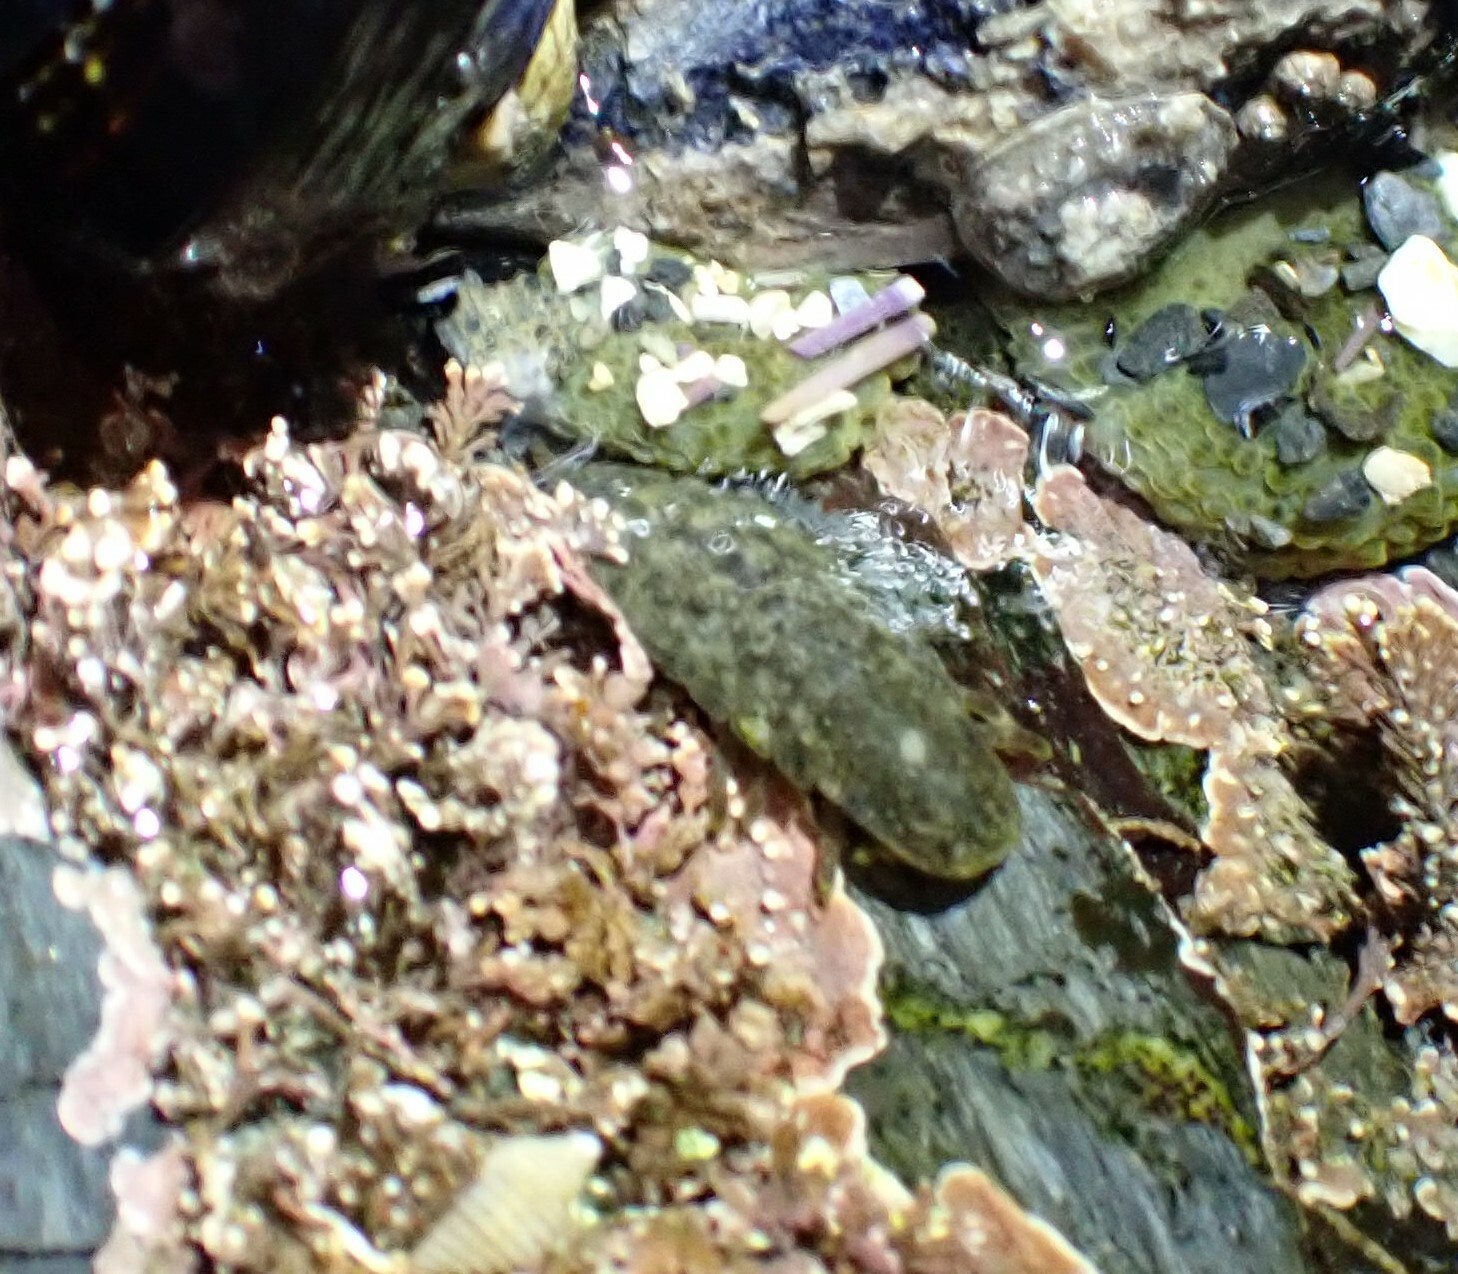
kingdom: Animalia
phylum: Arthropoda
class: Malacostraca
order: Isopoda
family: Idoteidae
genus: Pentidotea
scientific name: Pentidotea wosnesenskii
